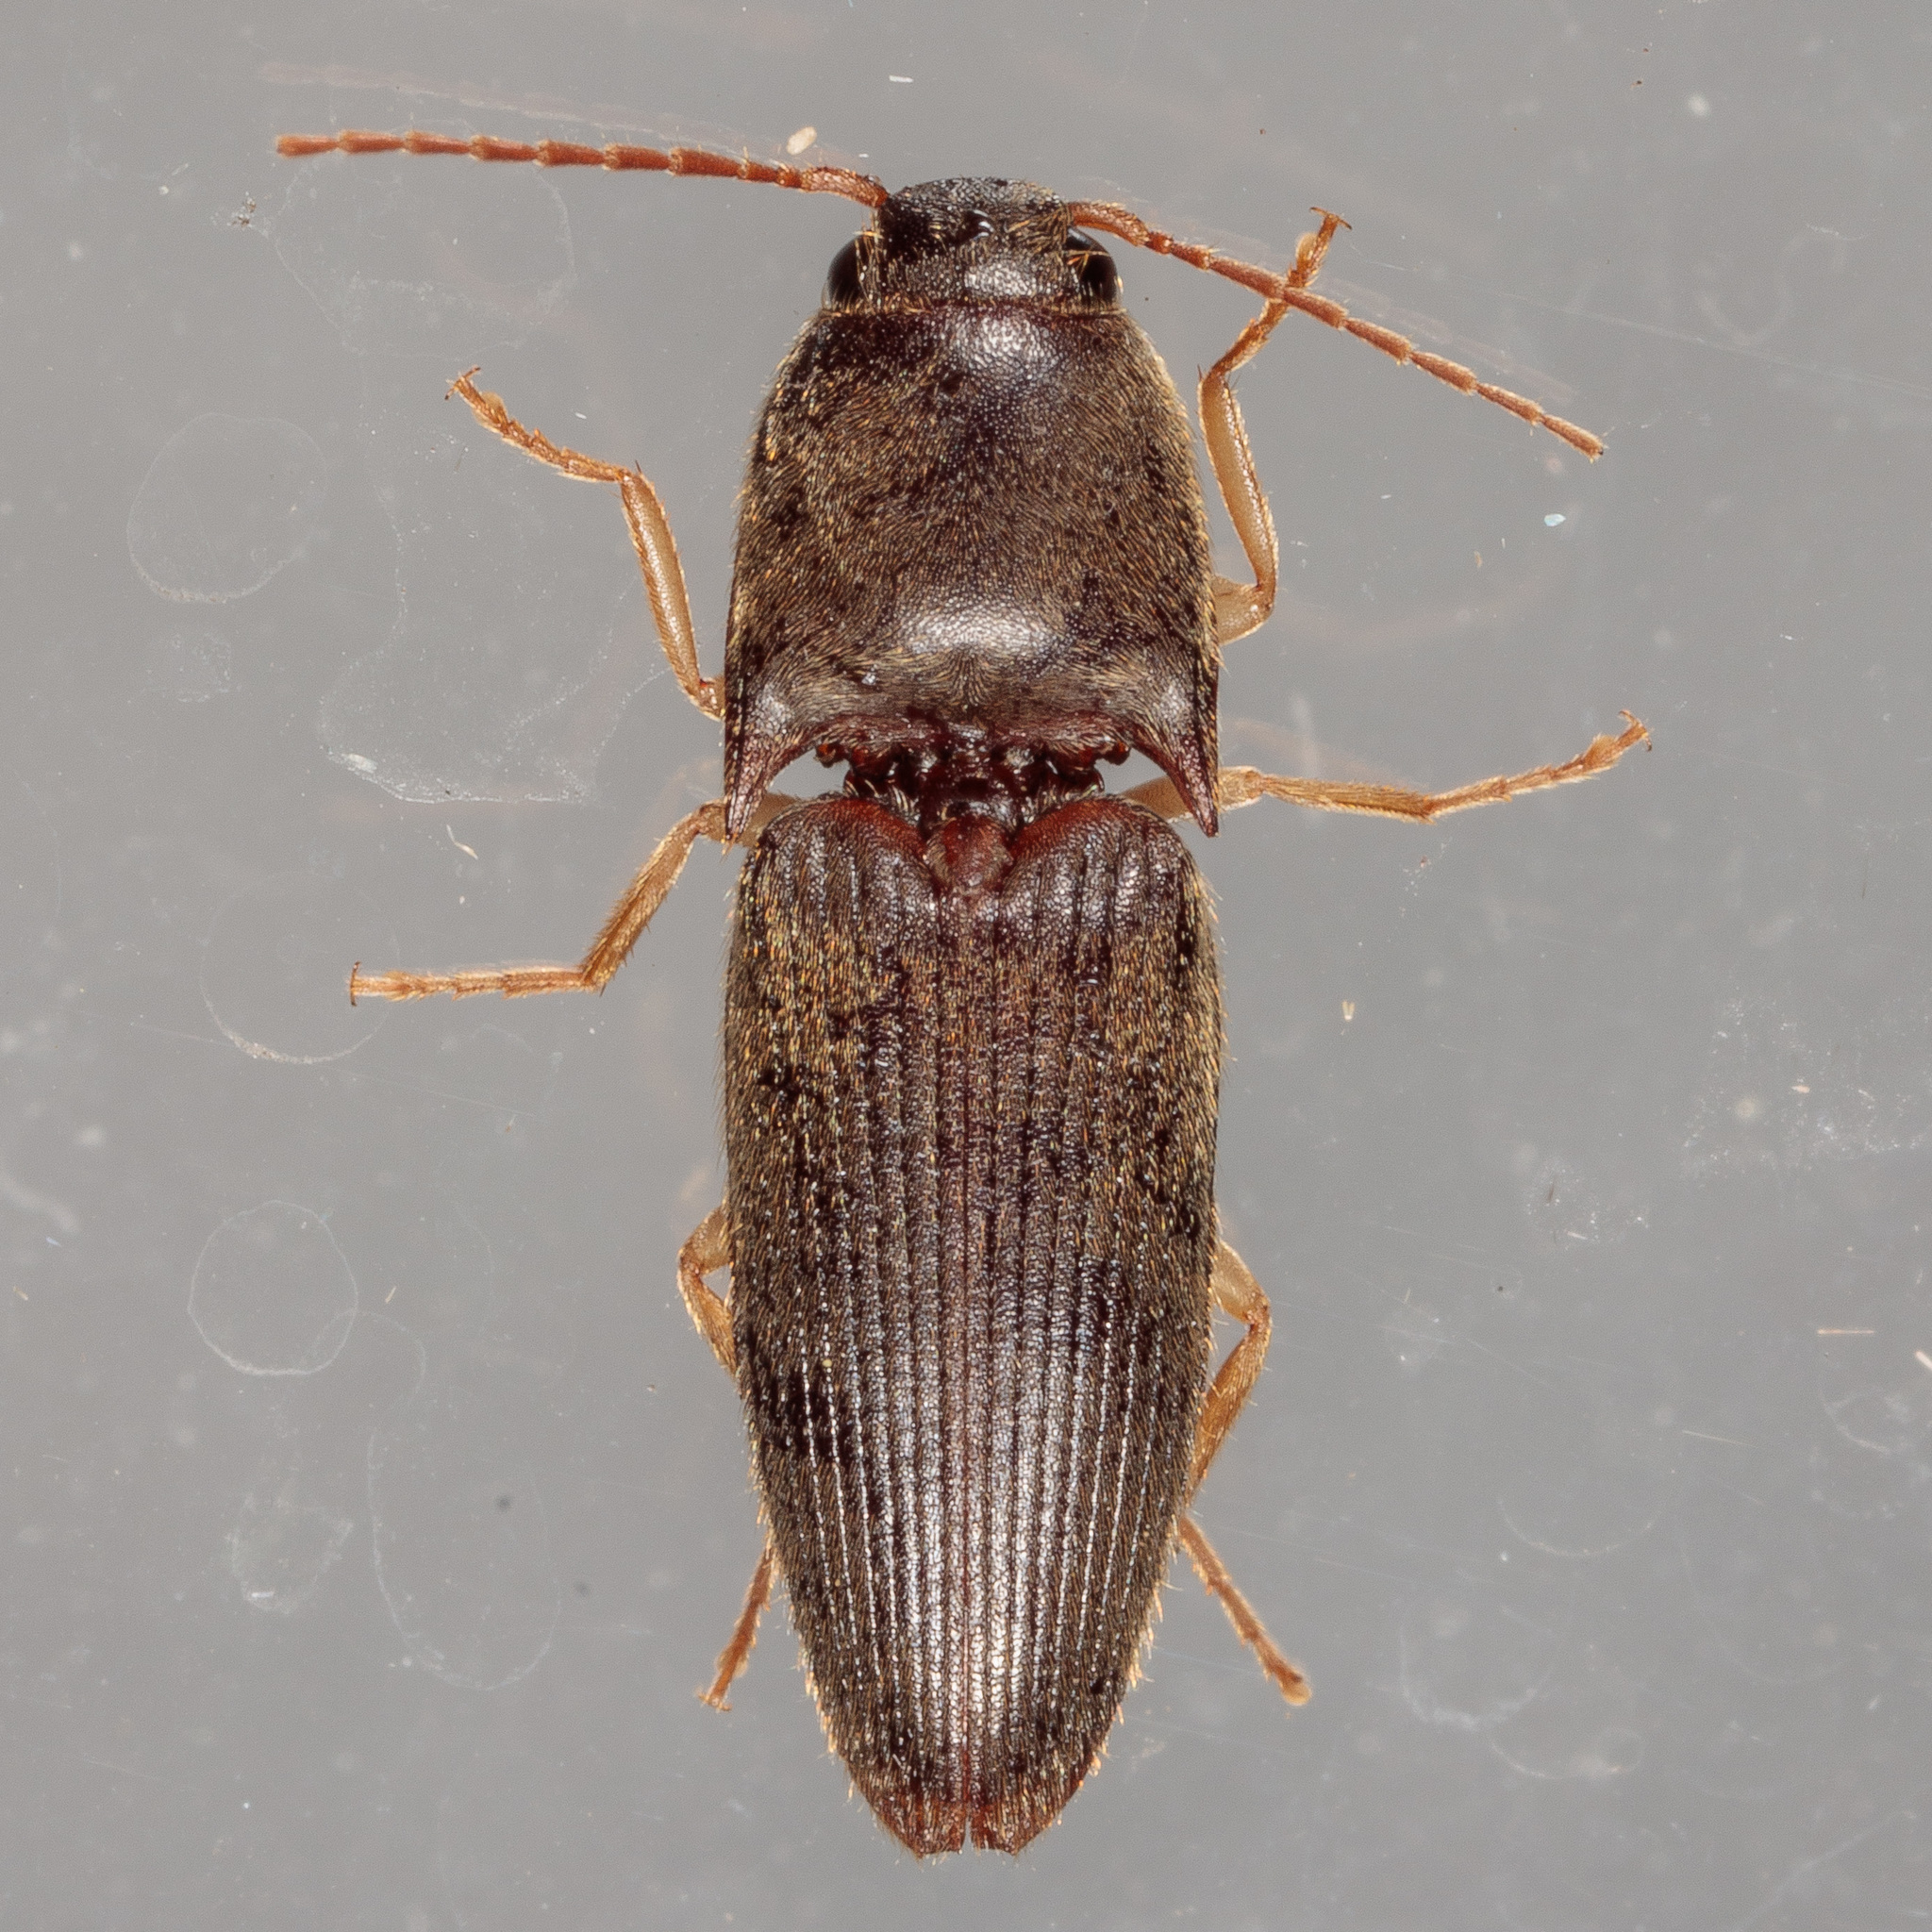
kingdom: Animalia
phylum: Arthropoda
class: Insecta
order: Coleoptera
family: Elateridae
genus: Conoderus
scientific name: Conoderus exsul
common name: Click beetle
